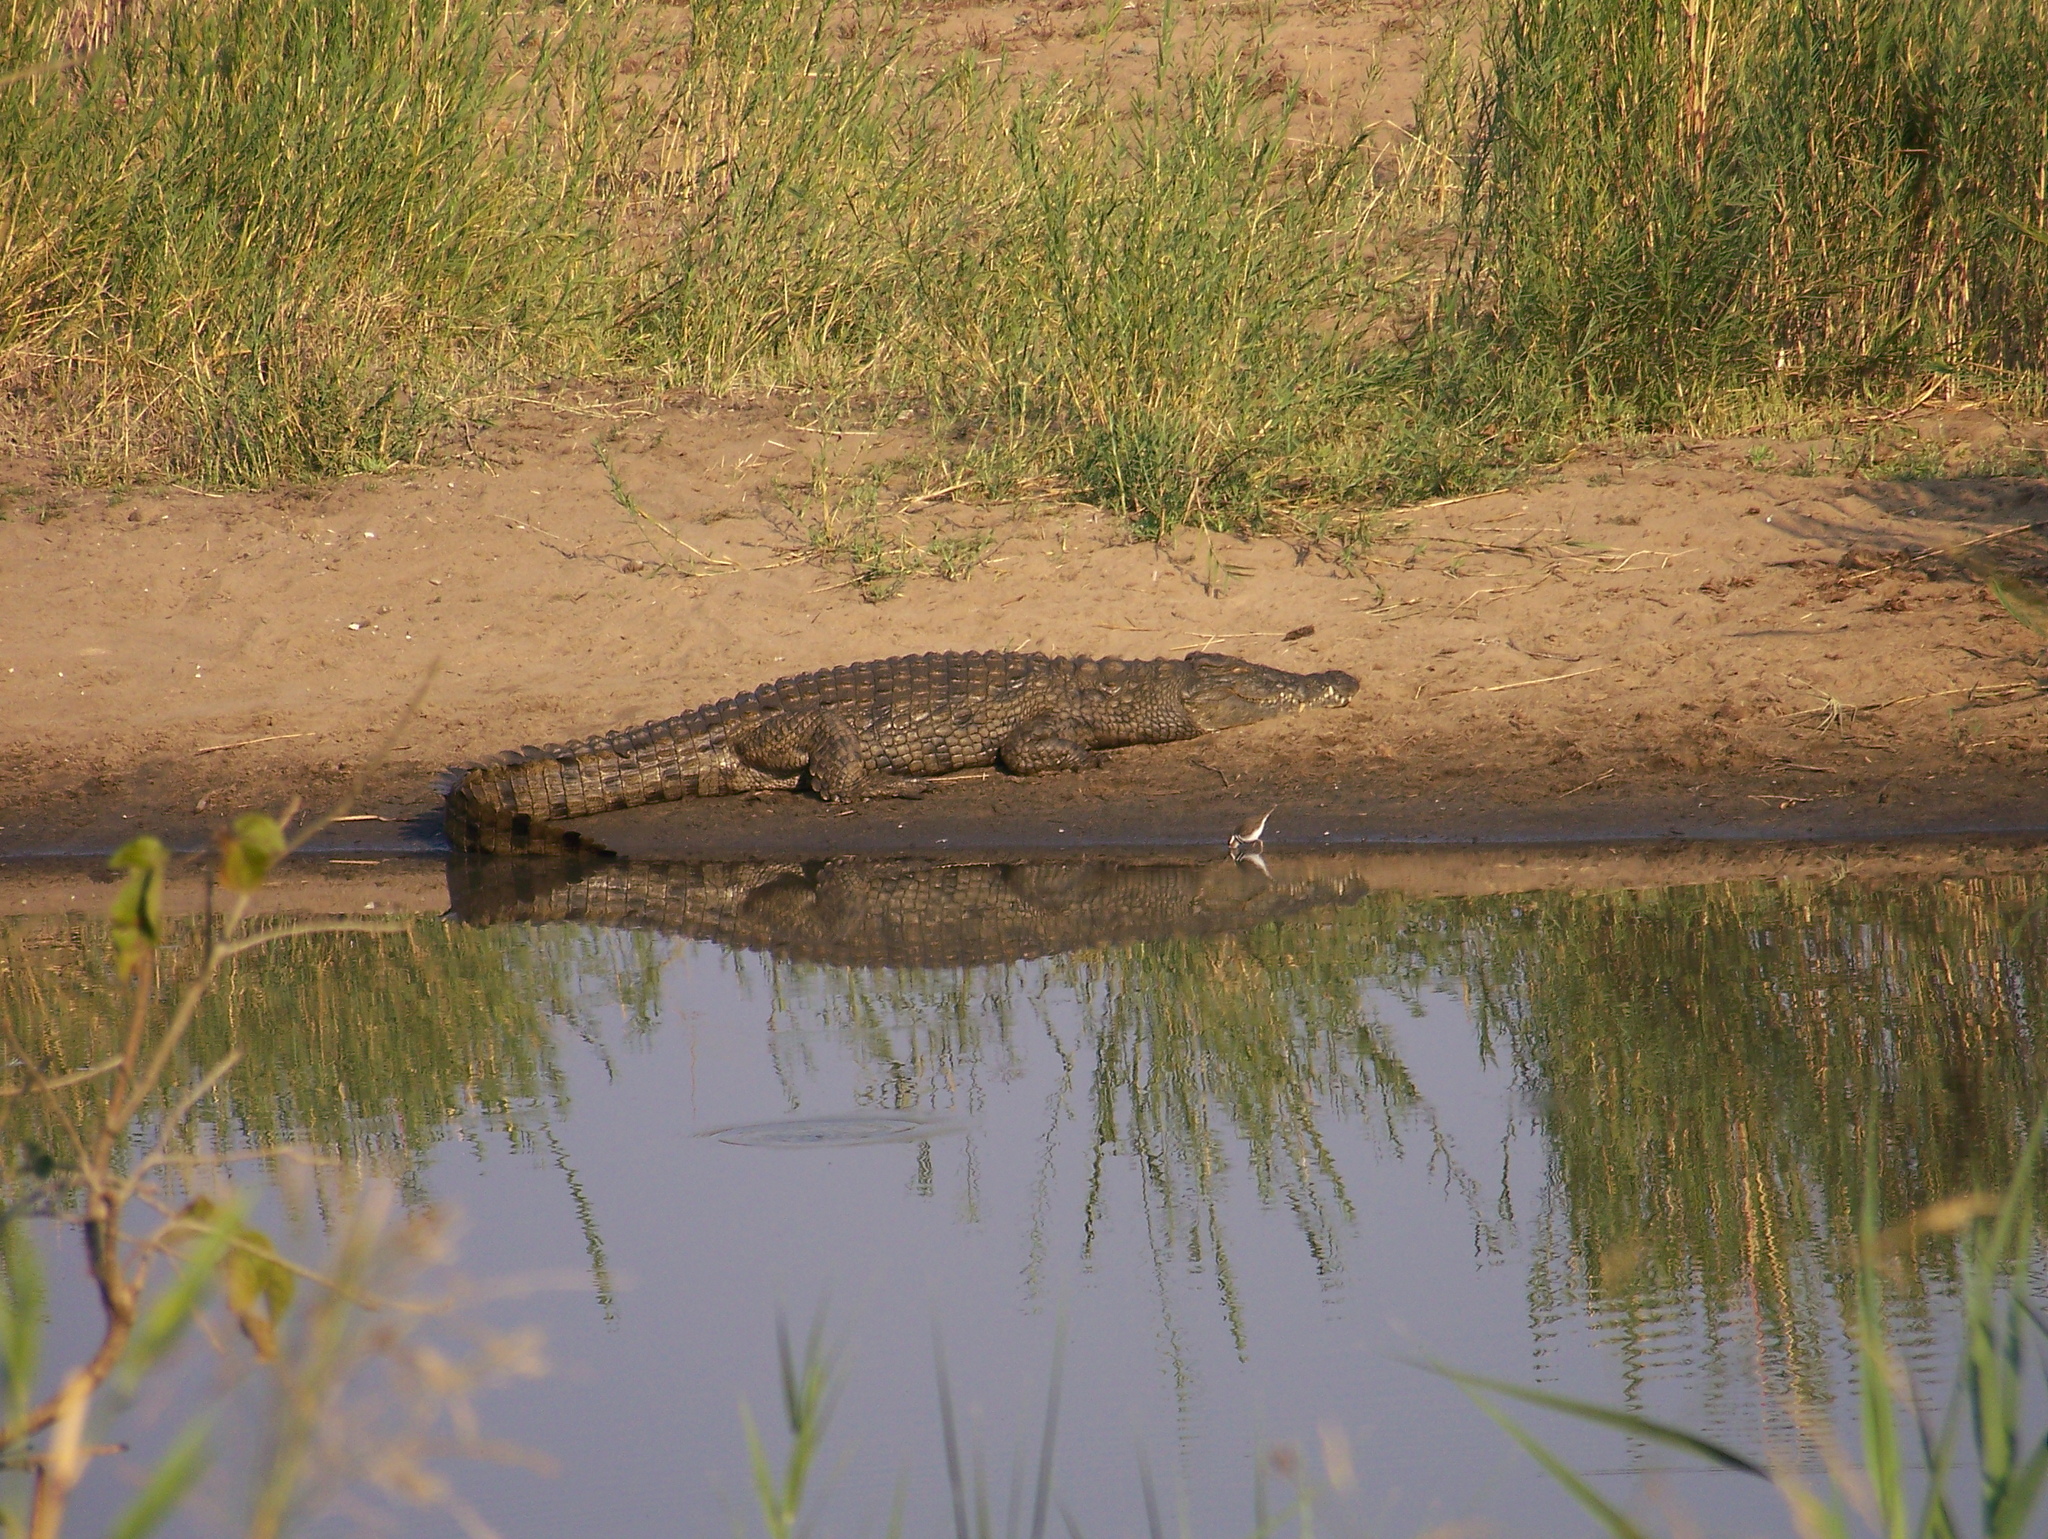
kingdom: Animalia
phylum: Chordata
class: Crocodylia
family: Crocodylidae
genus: Crocodylus
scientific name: Crocodylus niloticus
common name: Nile crocodile
